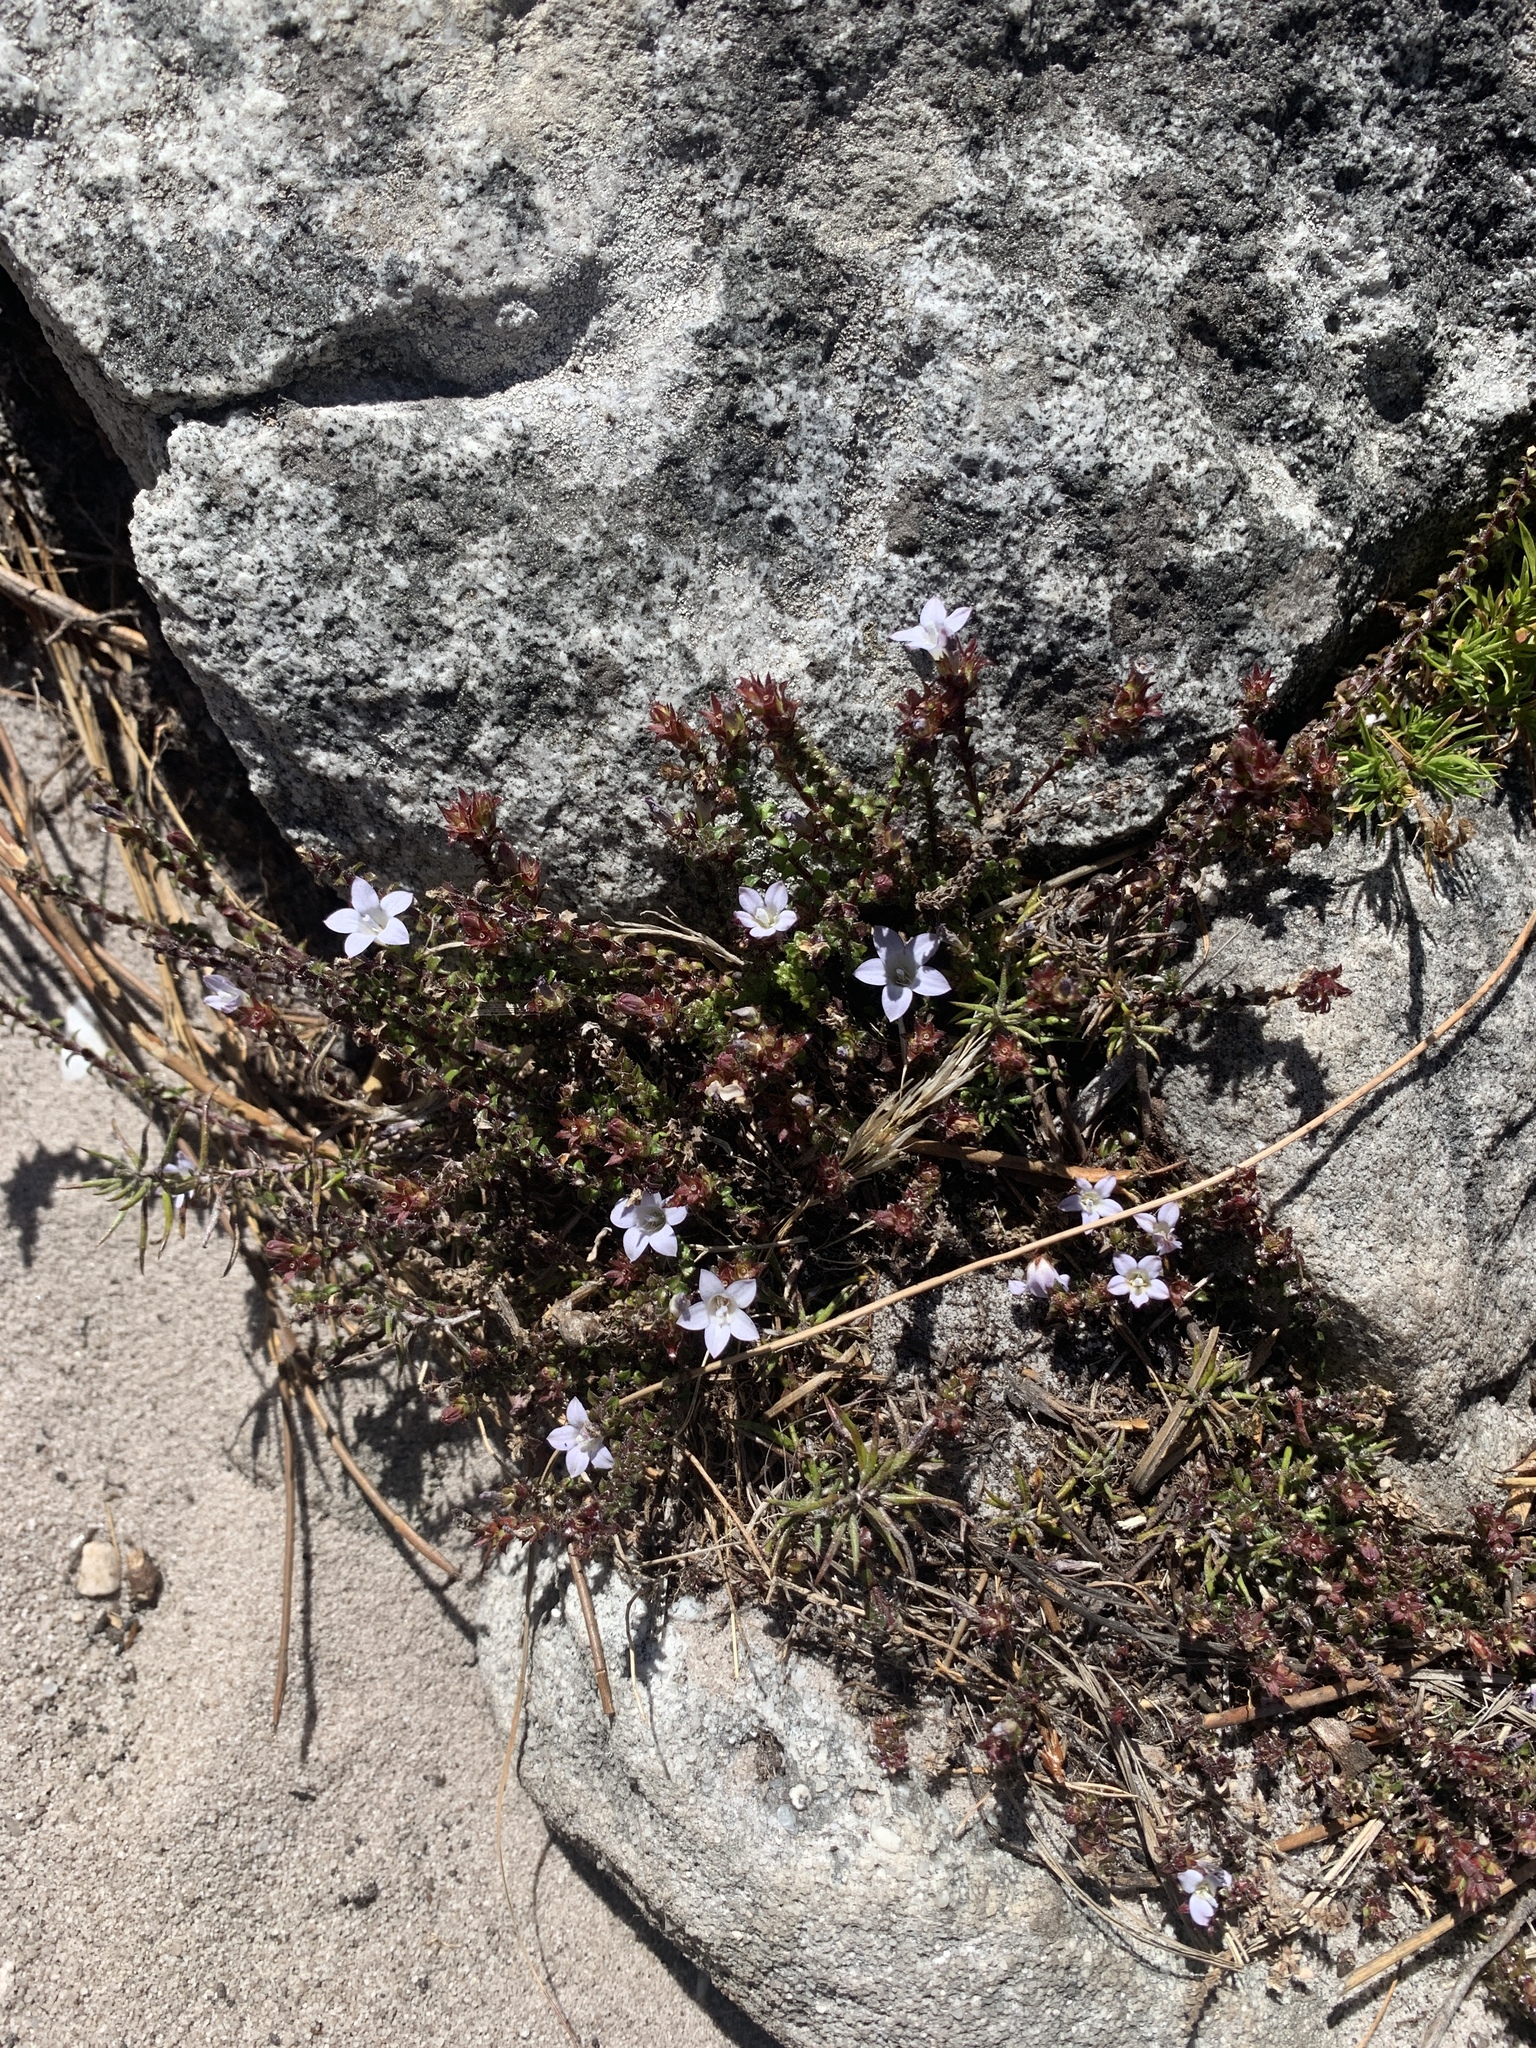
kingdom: Plantae
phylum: Tracheophyta
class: Magnoliopsida
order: Asterales
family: Campanulaceae
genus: Roella
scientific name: Roella amplexicaulis
